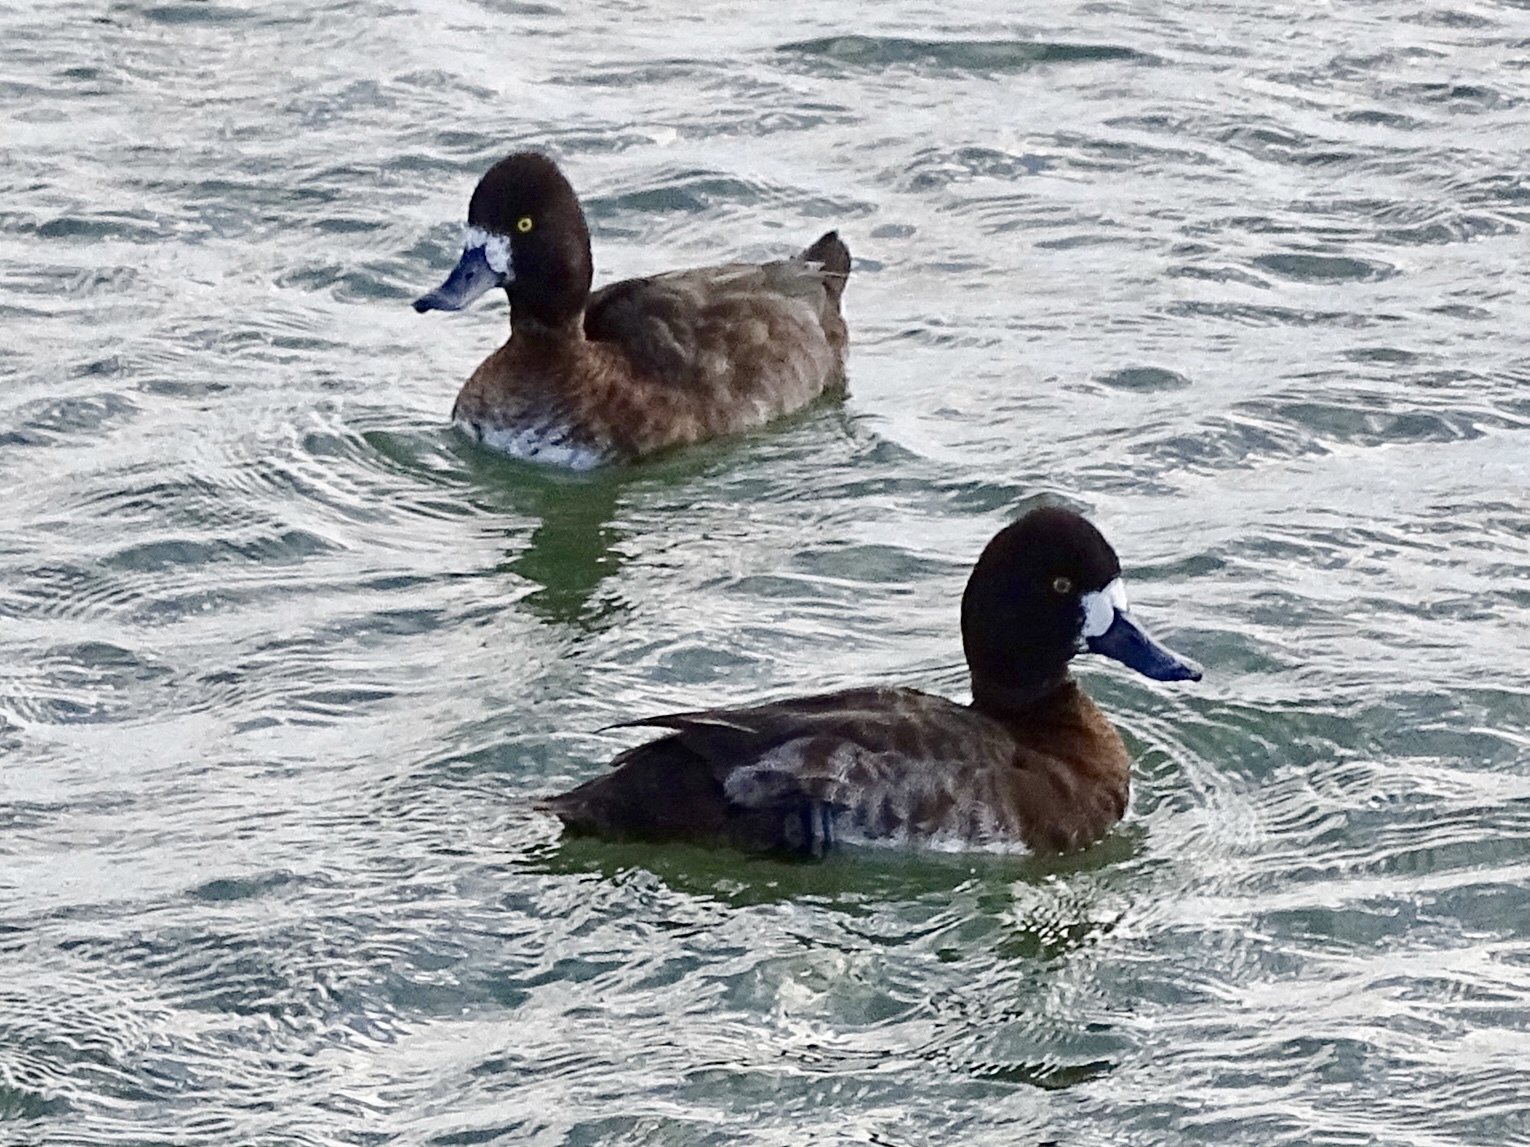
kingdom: Animalia
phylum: Chordata
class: Aves
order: Anseriformes
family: Anatidae
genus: Aythya
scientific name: Aythya marila
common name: Greater scaup
